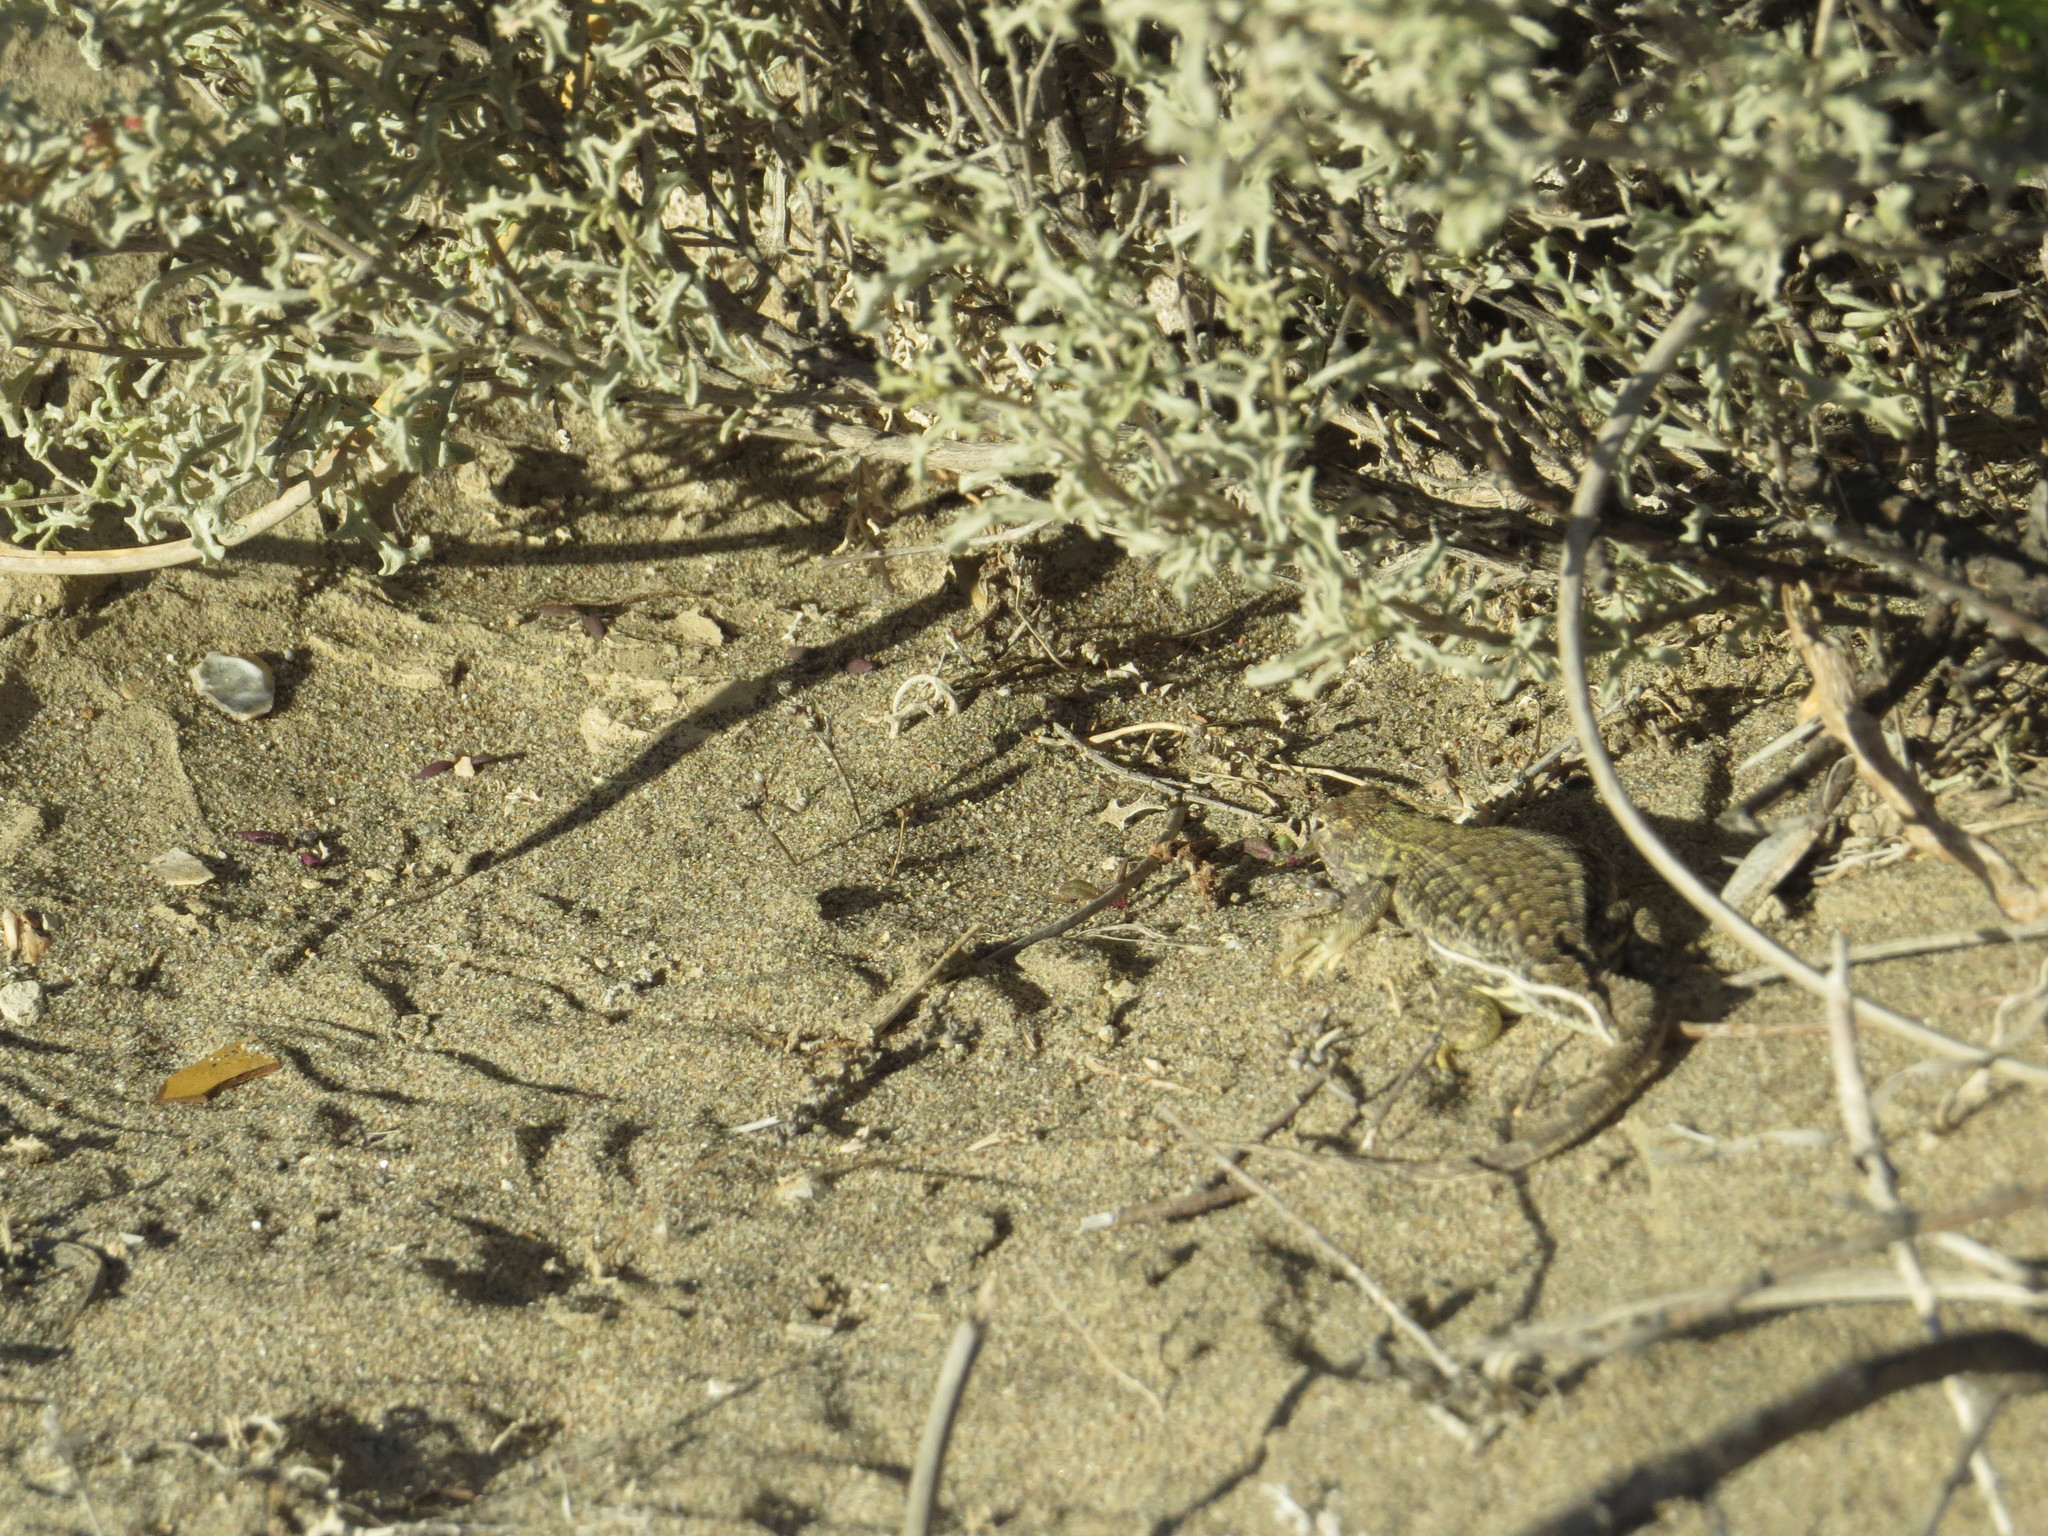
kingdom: Animalia
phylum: Chordata
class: Squamata
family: Liolaemidae
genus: Liolaemus
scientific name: Liolaemus darwinii
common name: Darwin's tree iguana
